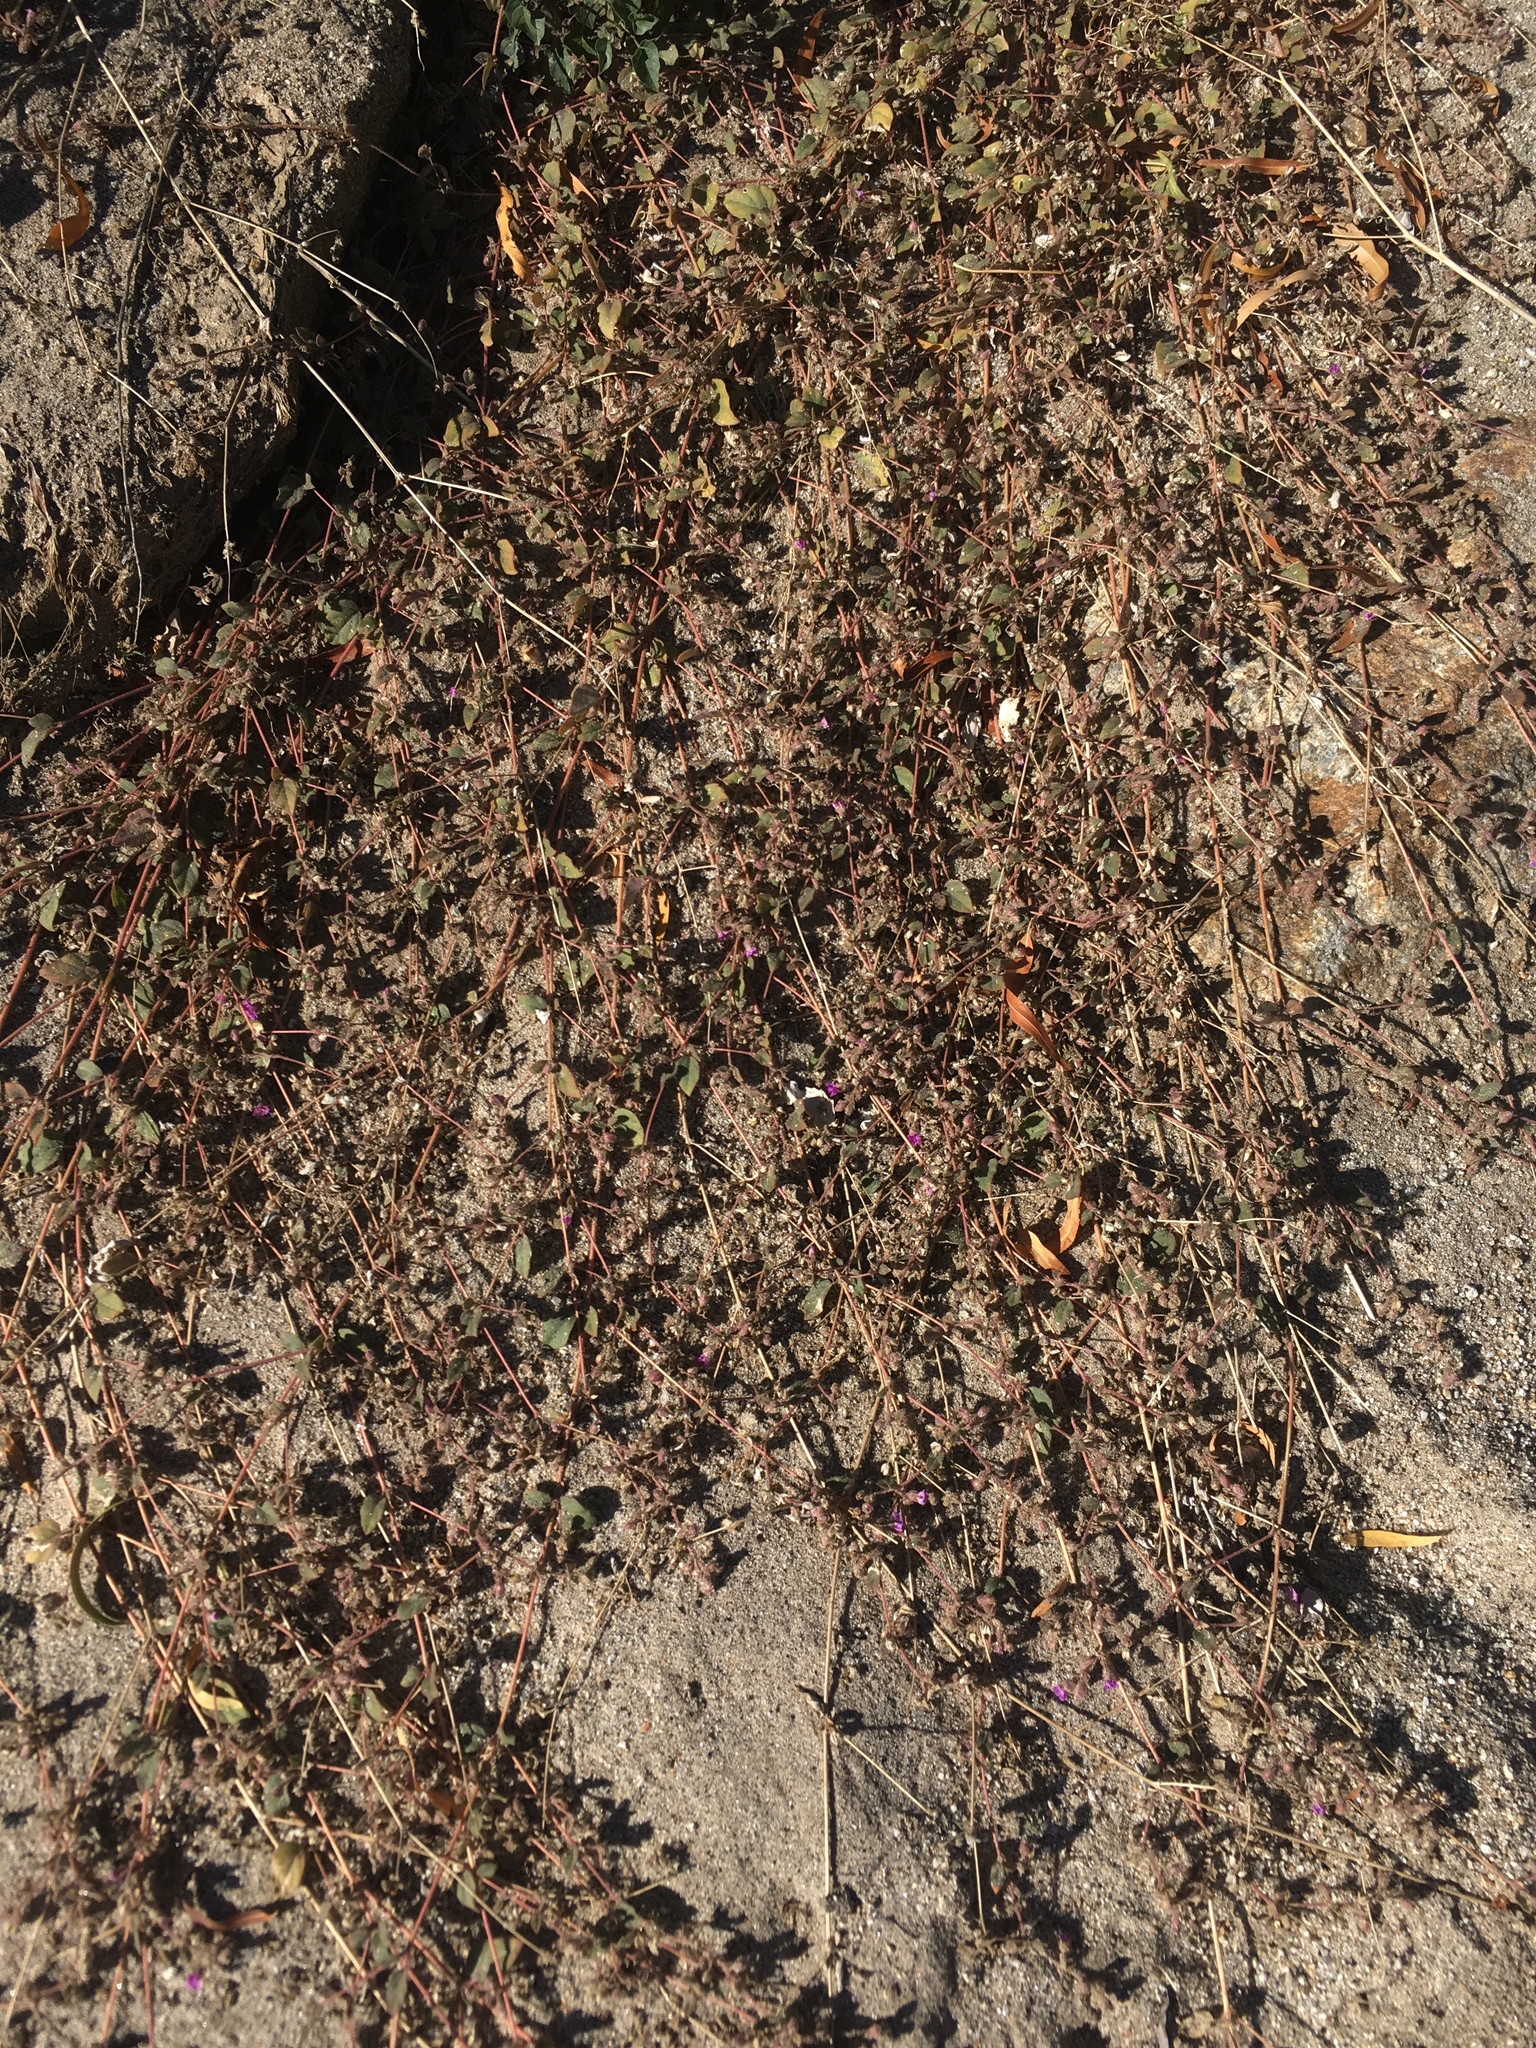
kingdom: Plantae
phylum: Tracheophyta
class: Magnoliopsida
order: Caryophyllales
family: Nyctaginaceae
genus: Allionia
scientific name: Allionia incarnata
